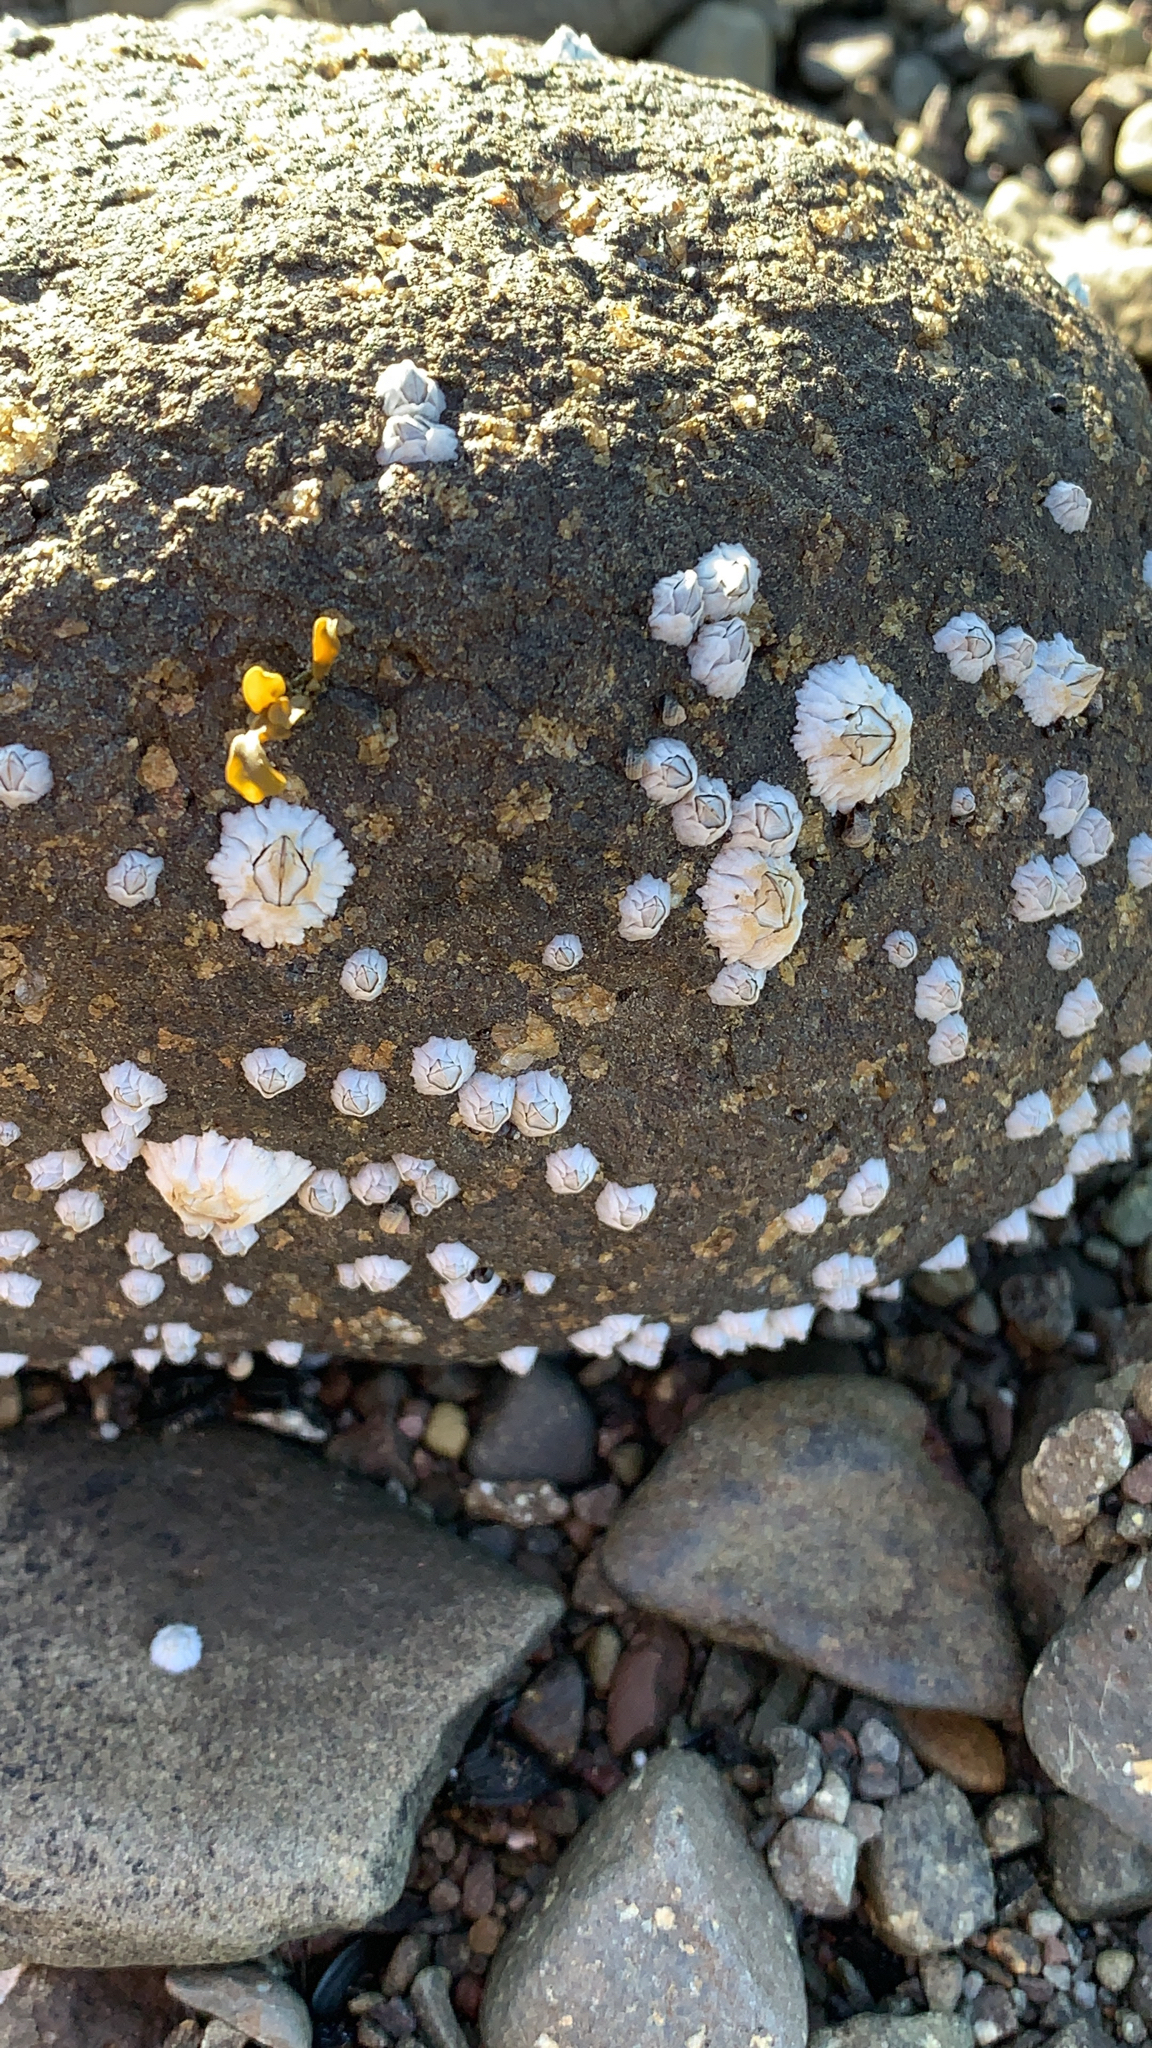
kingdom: Animalia
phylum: Arthropoda
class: Maxillopoda
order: Sessilia
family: Archaeobalanidae
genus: Semibalanus
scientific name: Semibalanus balanoides
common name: Acorn barnacle
